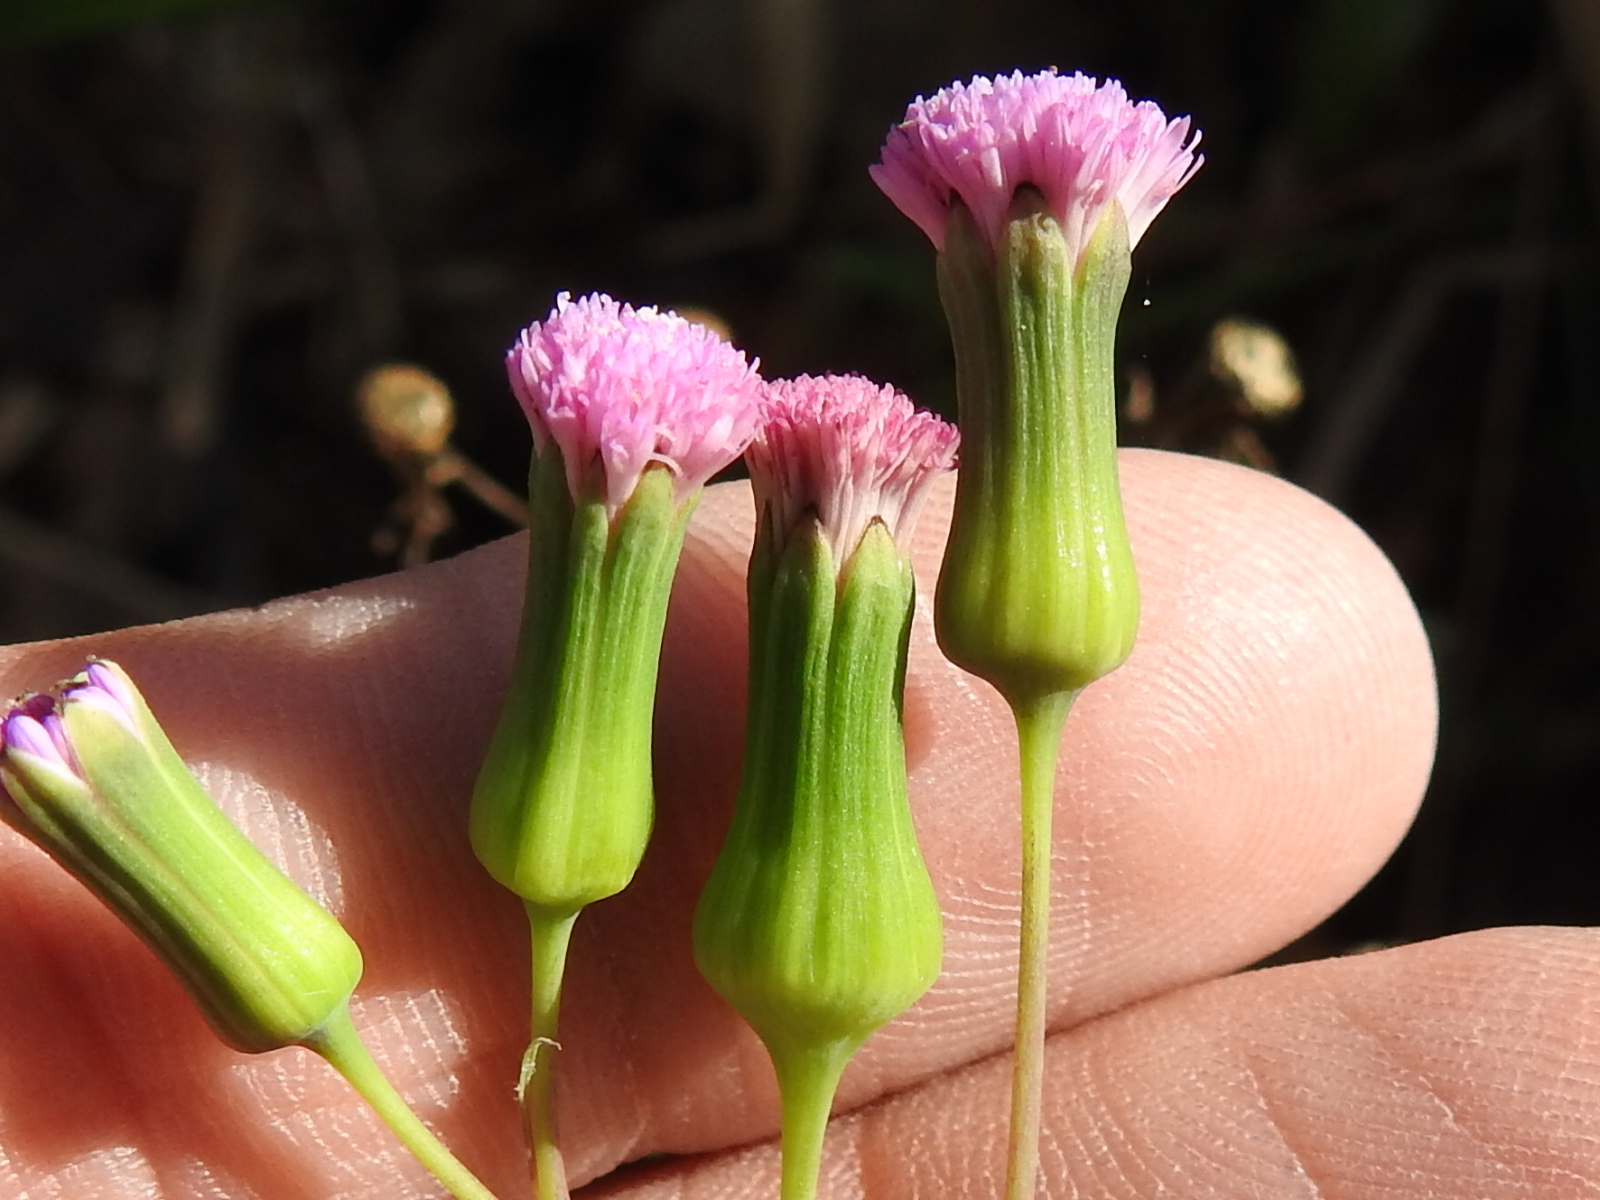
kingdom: Plantae
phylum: Tracheophyta
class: Magnoliopsida
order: Asterales
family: Asteraceae
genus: Emilia
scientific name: Emilia sonchifolia
